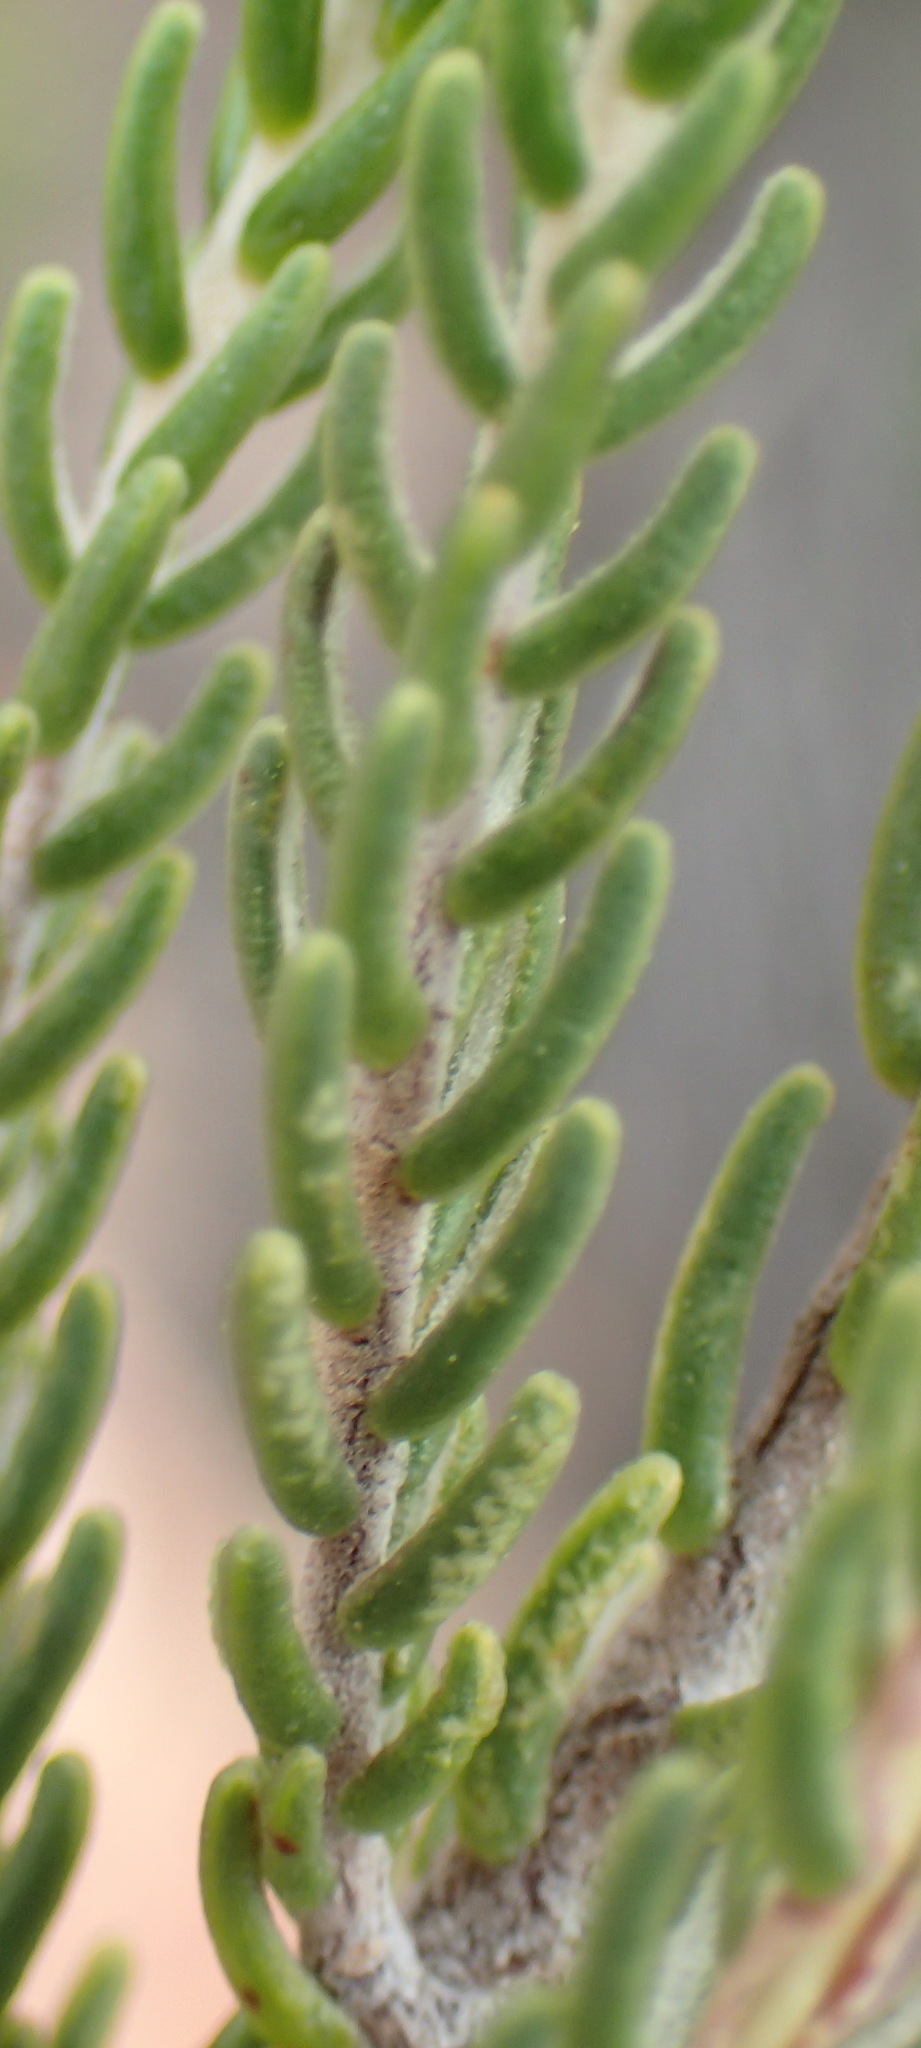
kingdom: Plantae
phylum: Tracheophyta
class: Magnoliopsida
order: Malvales
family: Thymelaeaceae
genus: Passerina
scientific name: Passerina obtusifolia
